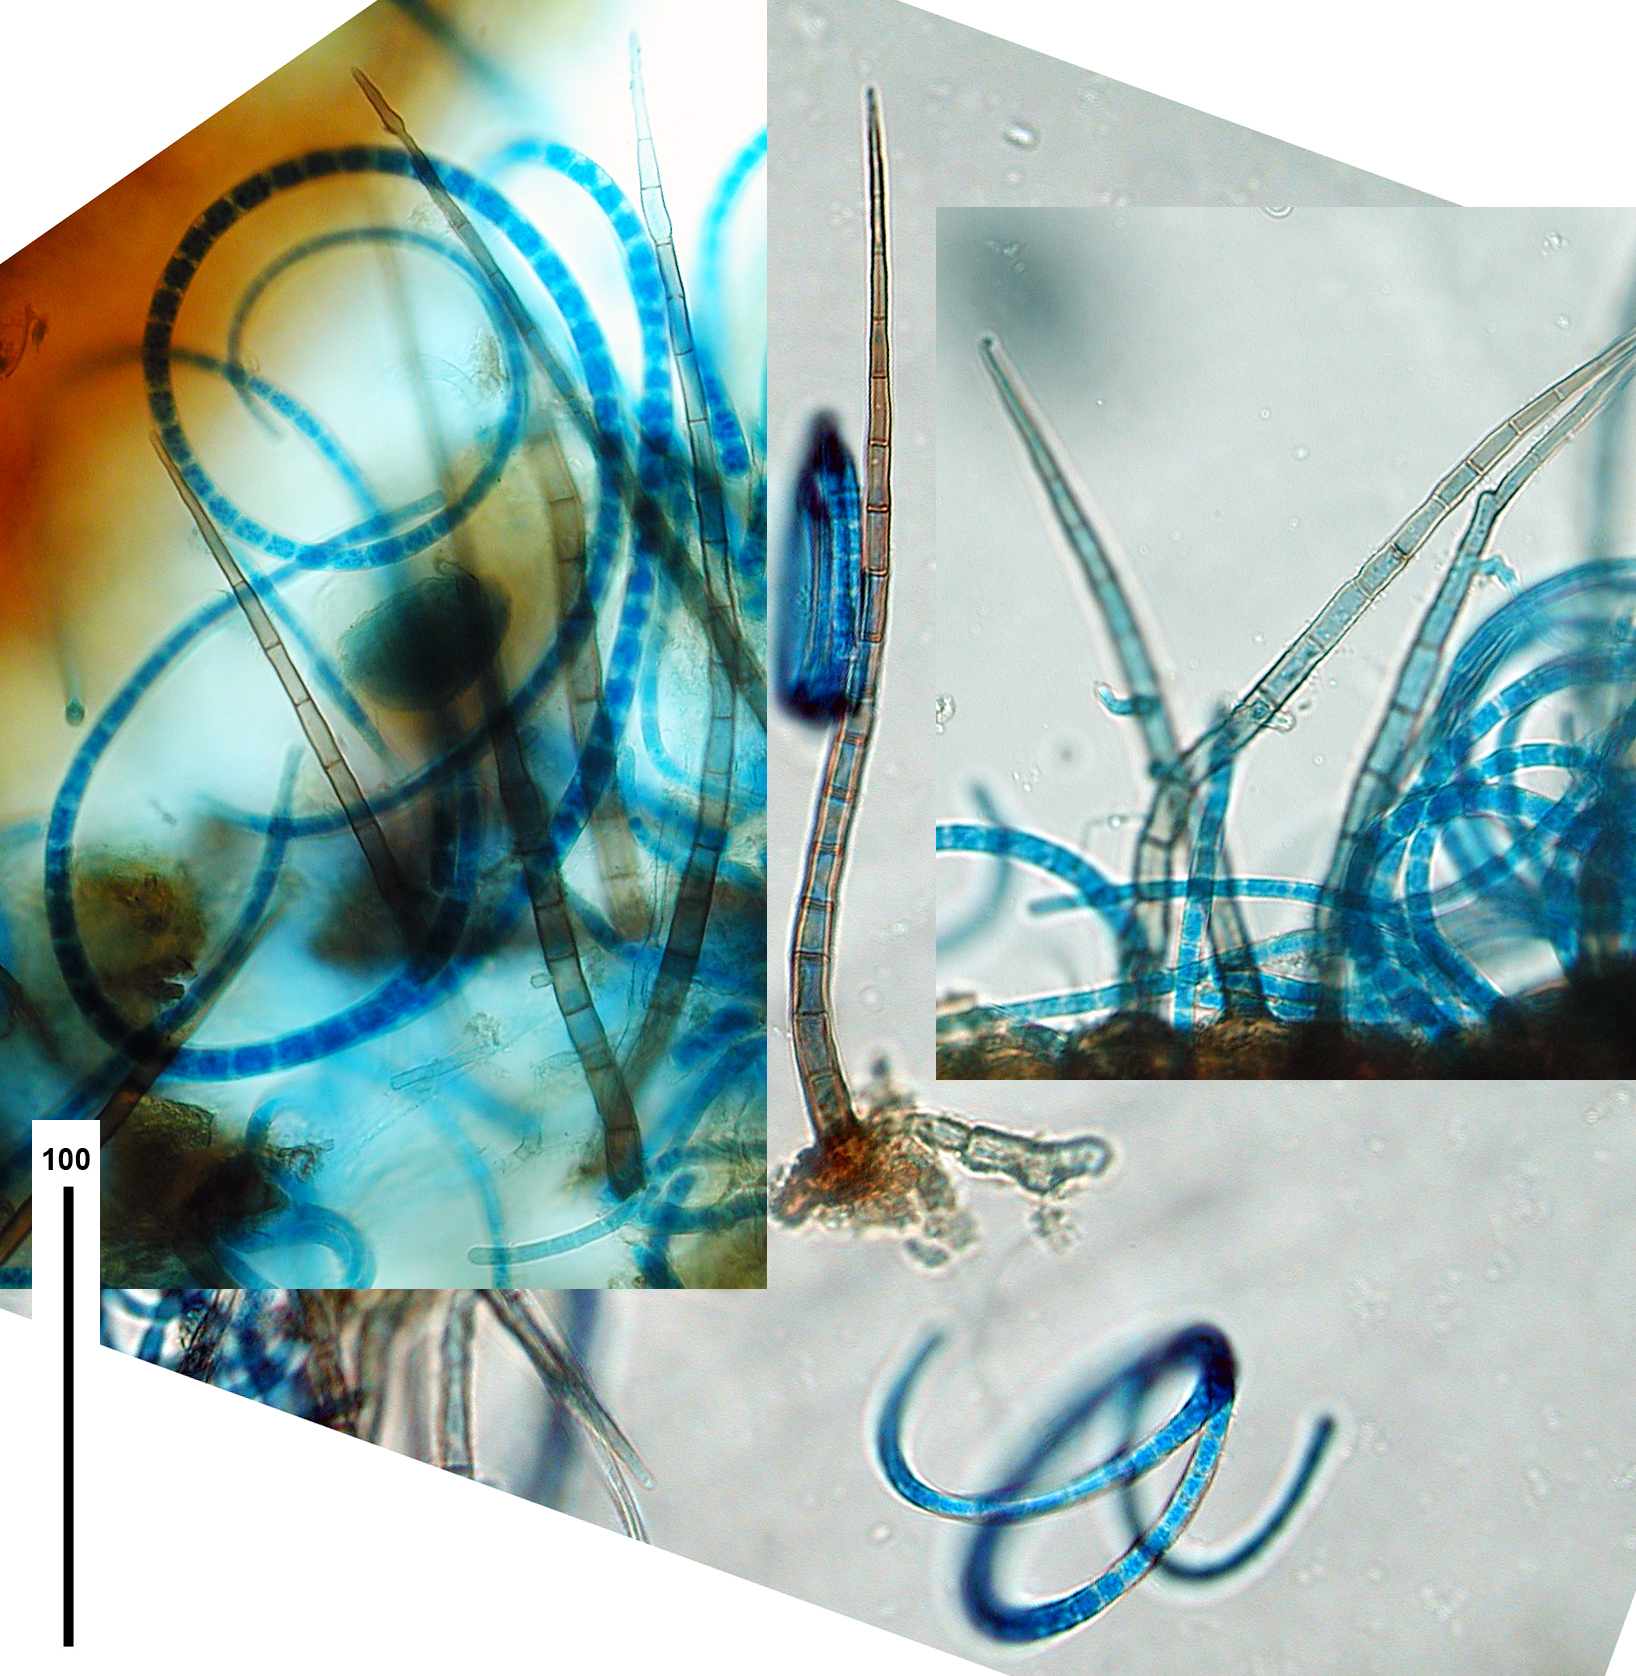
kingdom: Fungi
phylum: Ascomycota
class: Dothideomycetes
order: Tubeufiales
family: Tubeufiaceae
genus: Helicoma
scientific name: Helicoma pannosum
